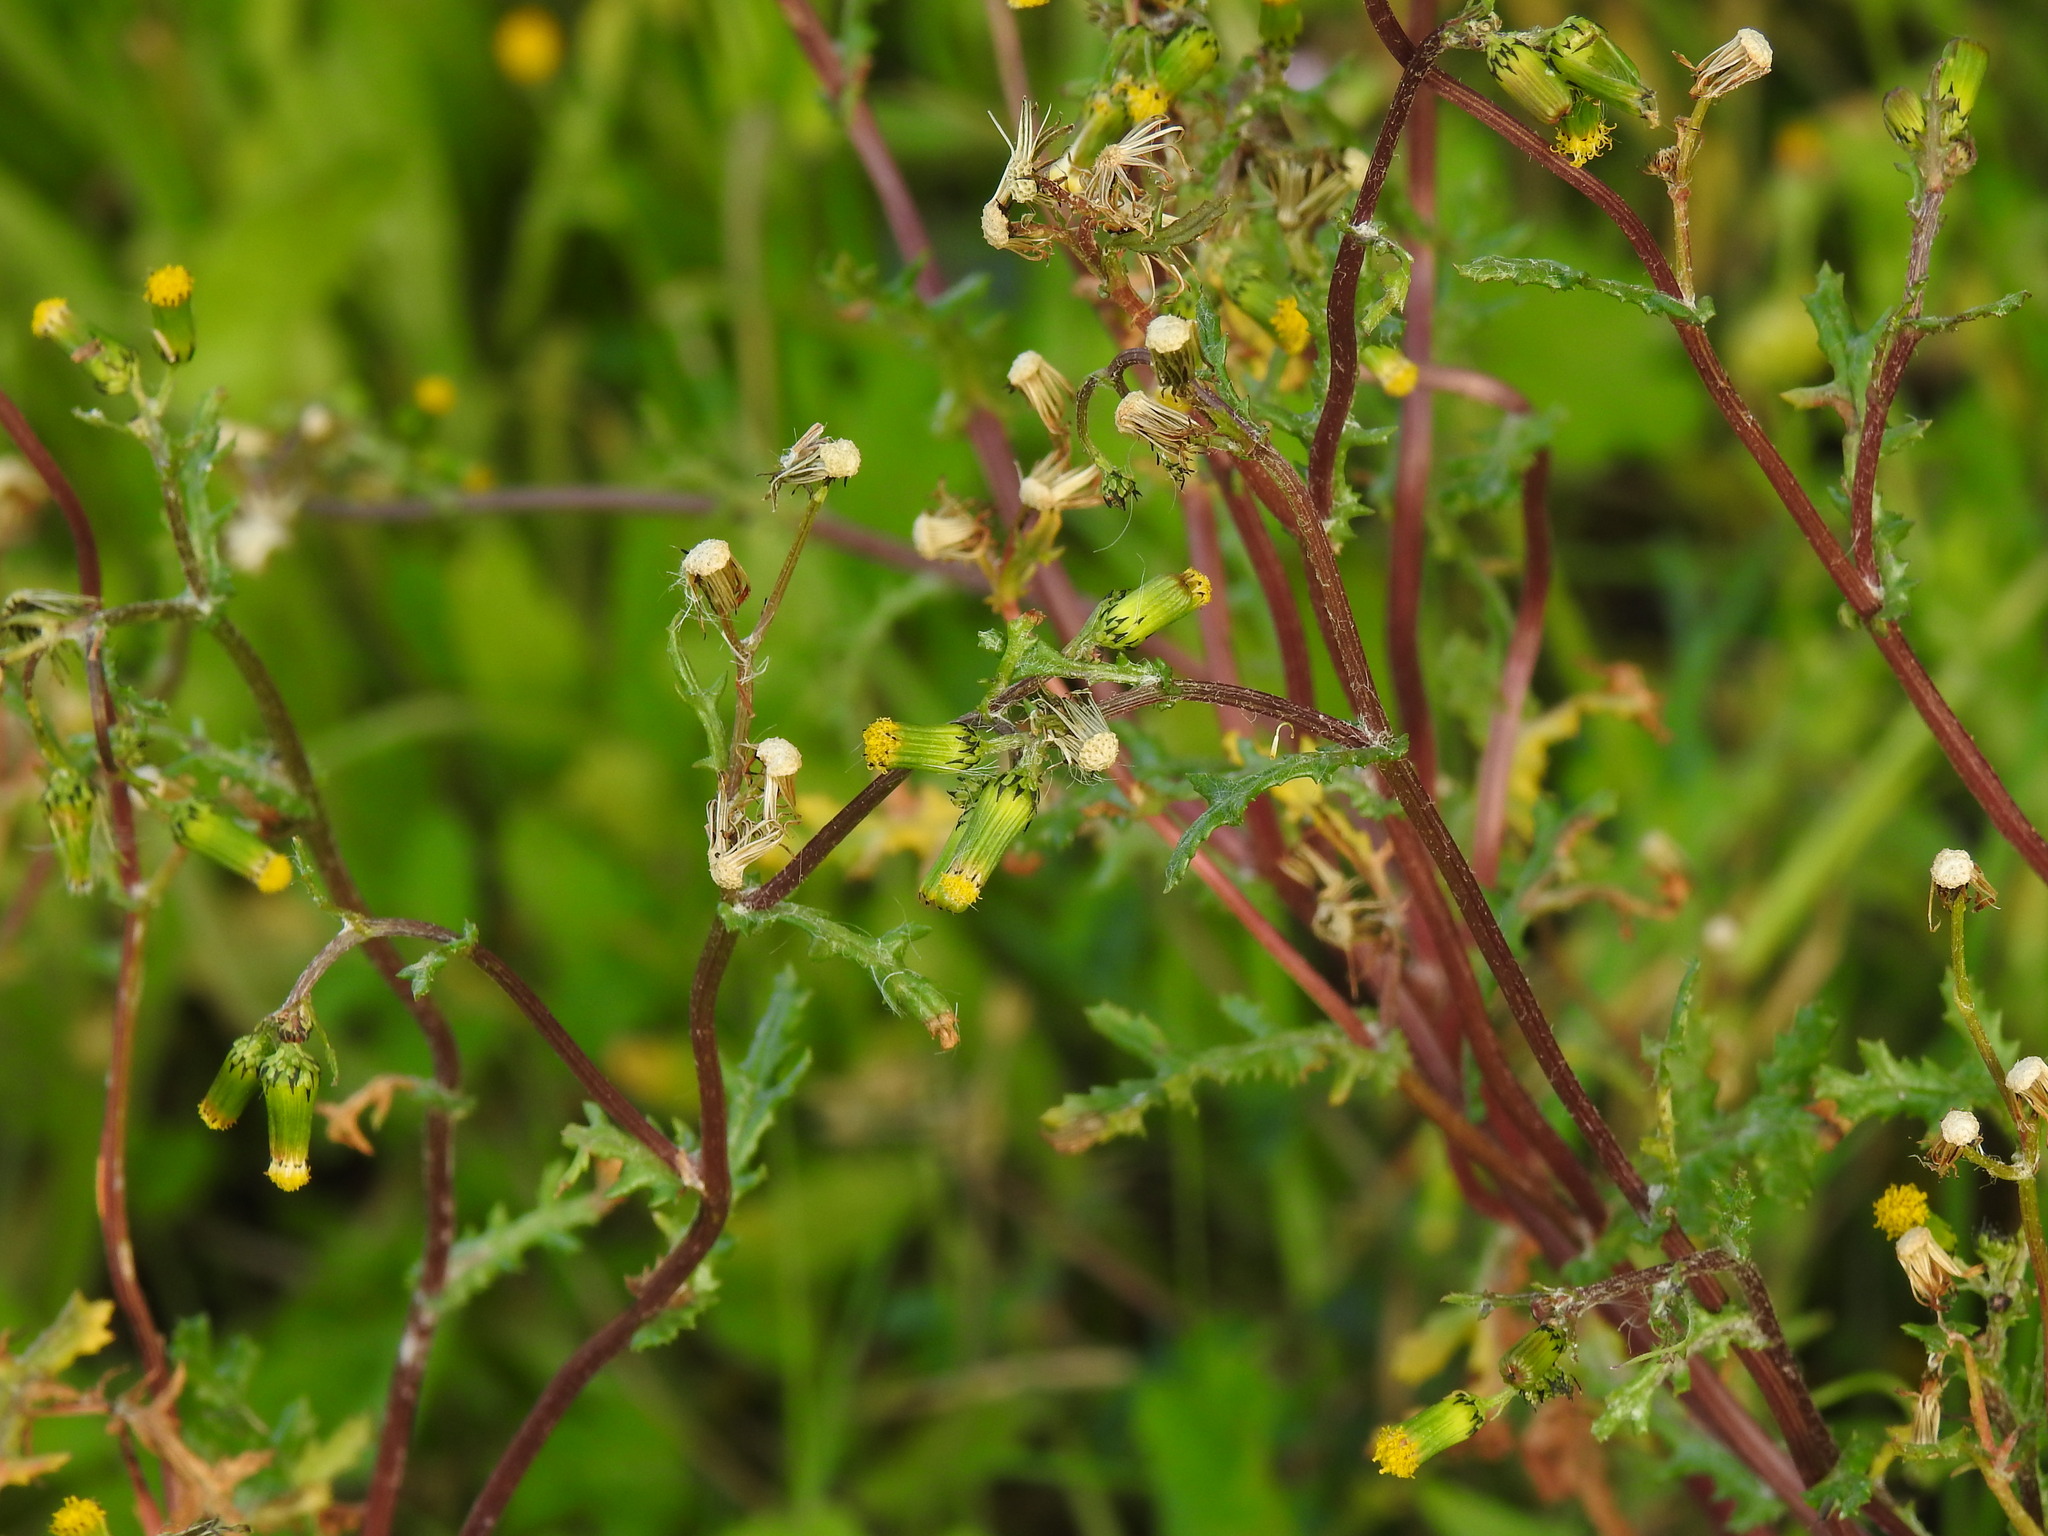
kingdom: Plantae
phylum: Tracheophyta
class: Magnoliopsida
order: Asterales
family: Asteraceae
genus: Senecio
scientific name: Senecio vulgaris
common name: Old-man-in-the-spring
